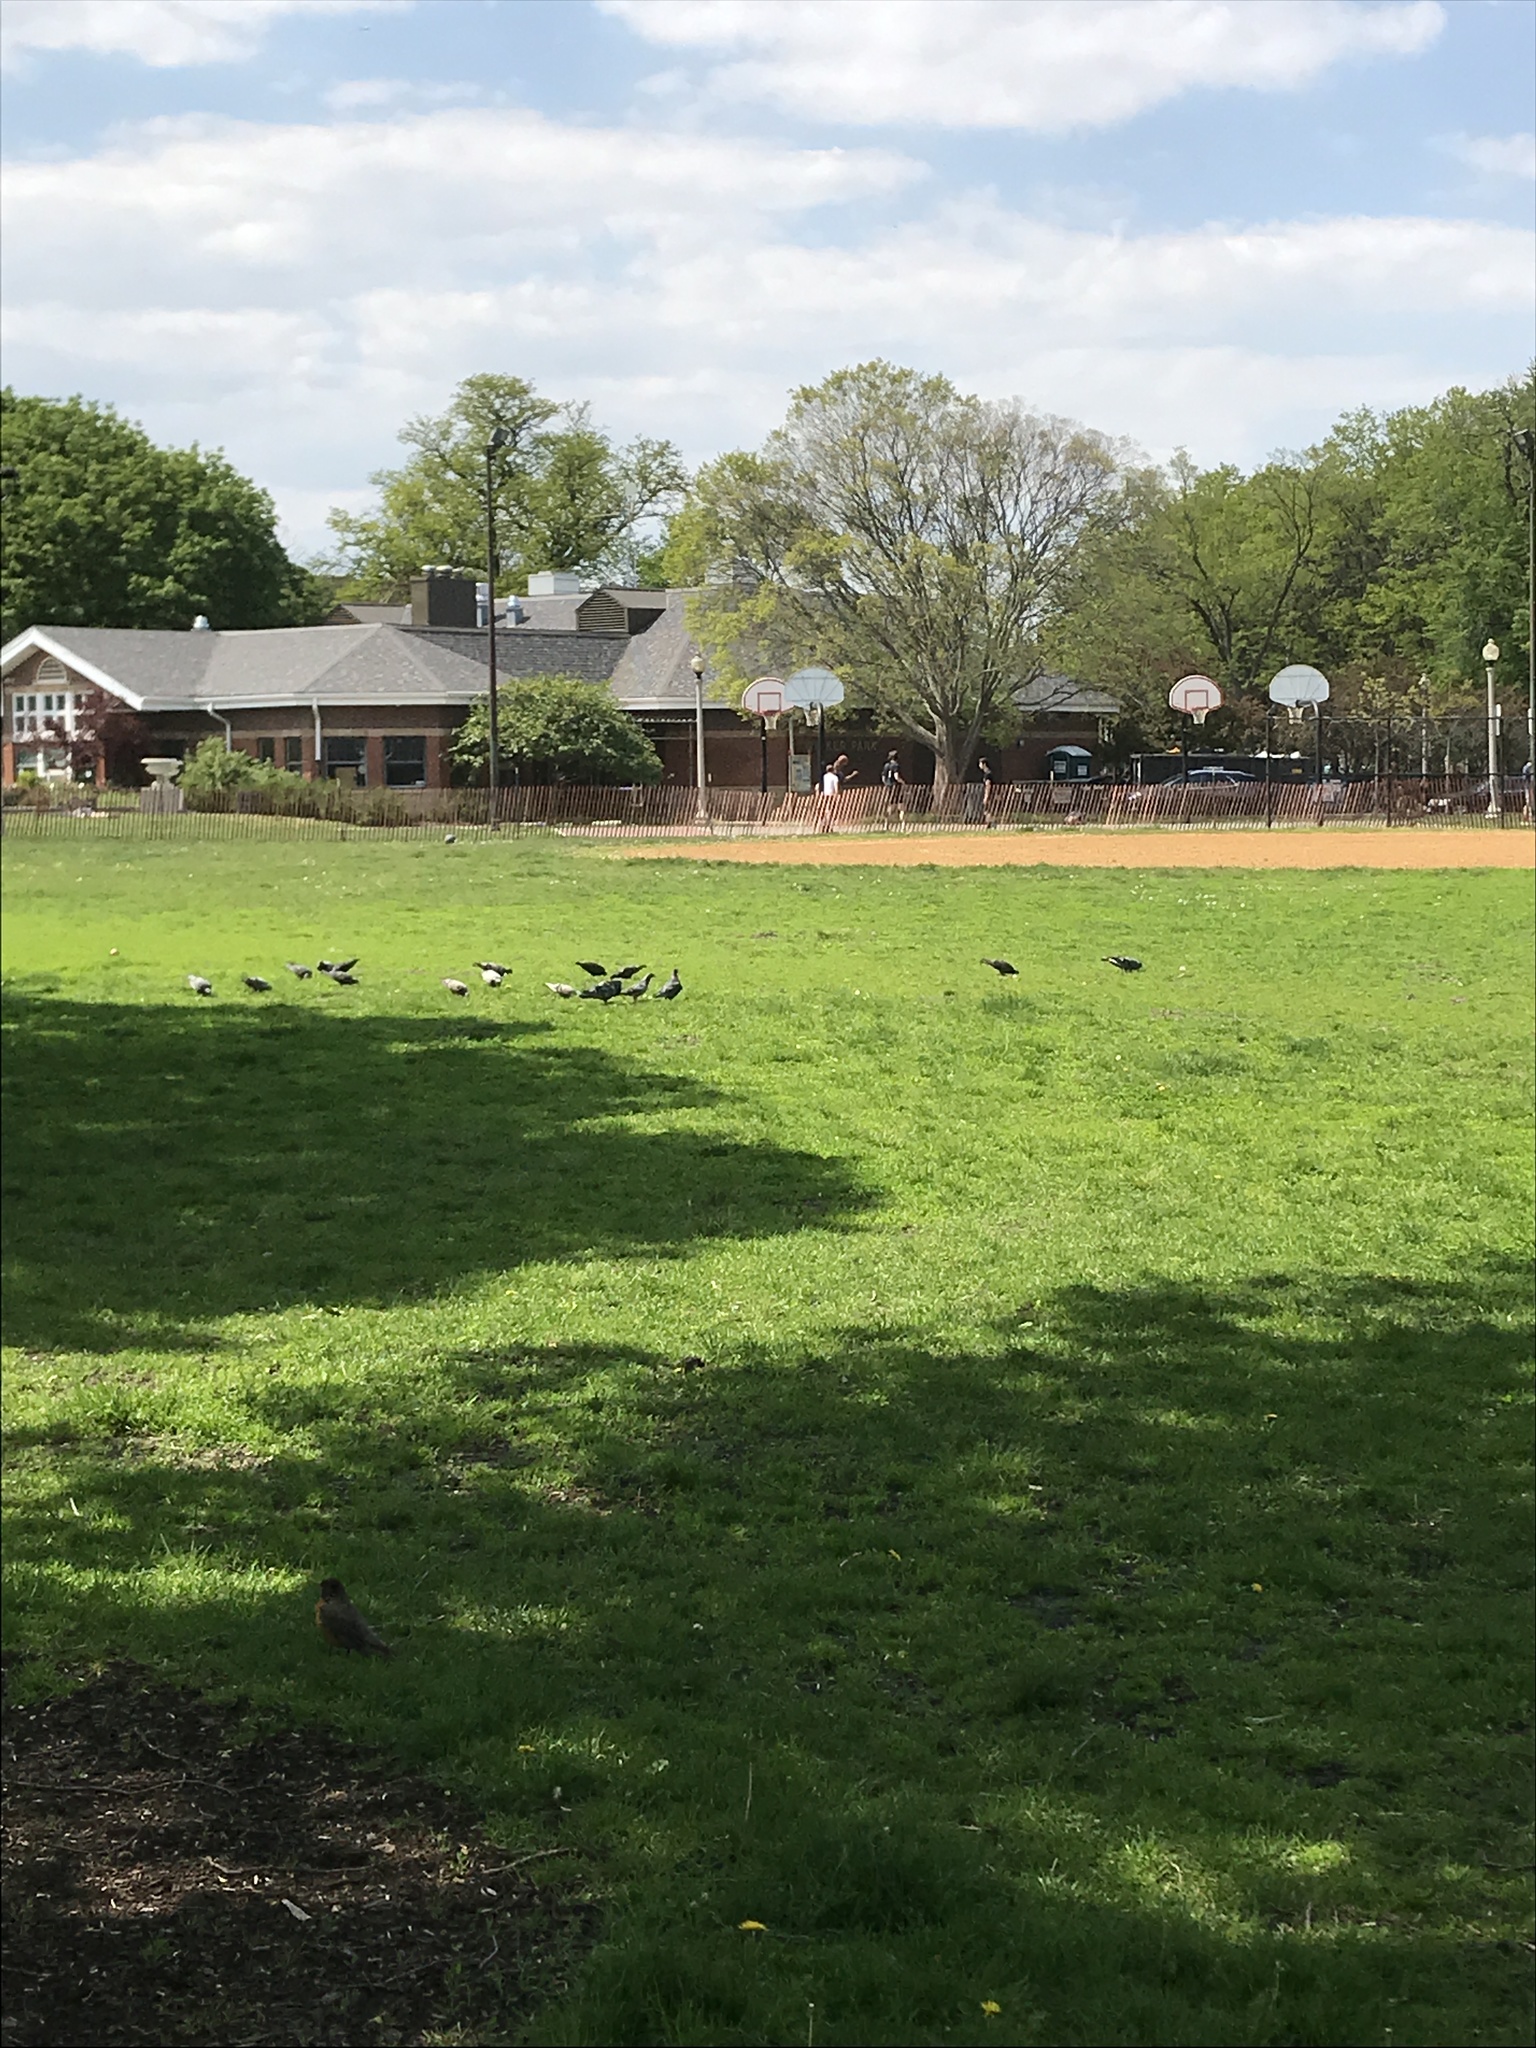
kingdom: Animalia
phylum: Chordata
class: Aves
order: Columbiformes
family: Columbidae
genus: Columba
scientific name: Columba livia
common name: Rock pigeon
